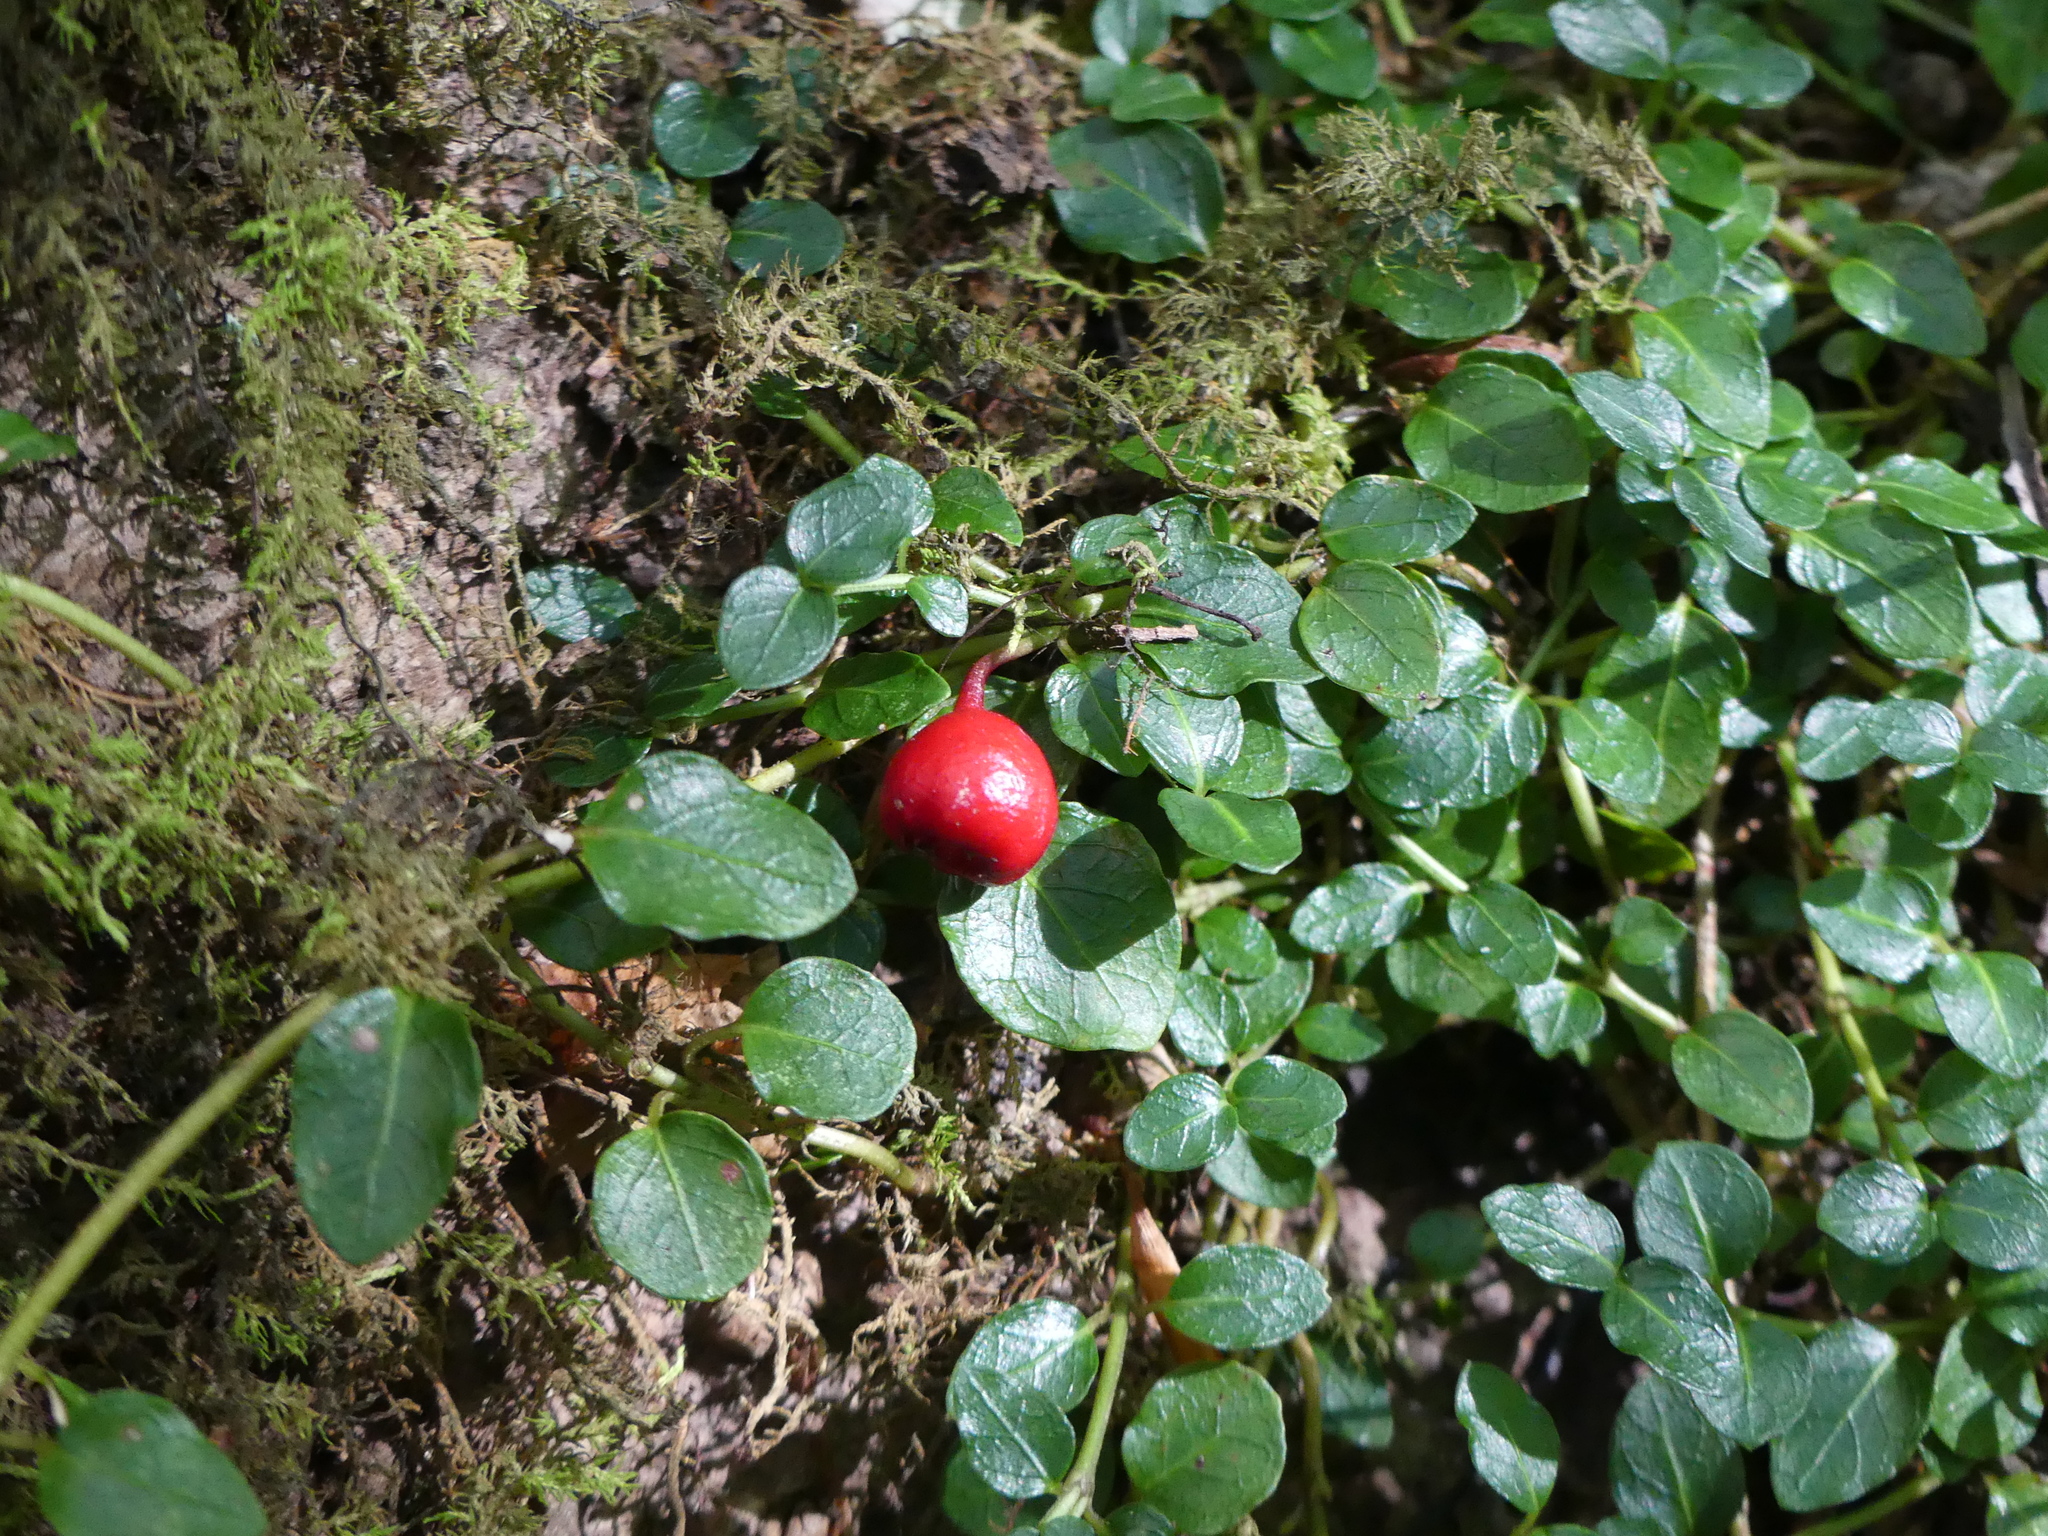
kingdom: Plantae
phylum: Tracheophyta
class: Magnoliopsida
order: Gentianales
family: Rubiaceae
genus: Mitchella
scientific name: Mitchella repens
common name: Partridge-berry
